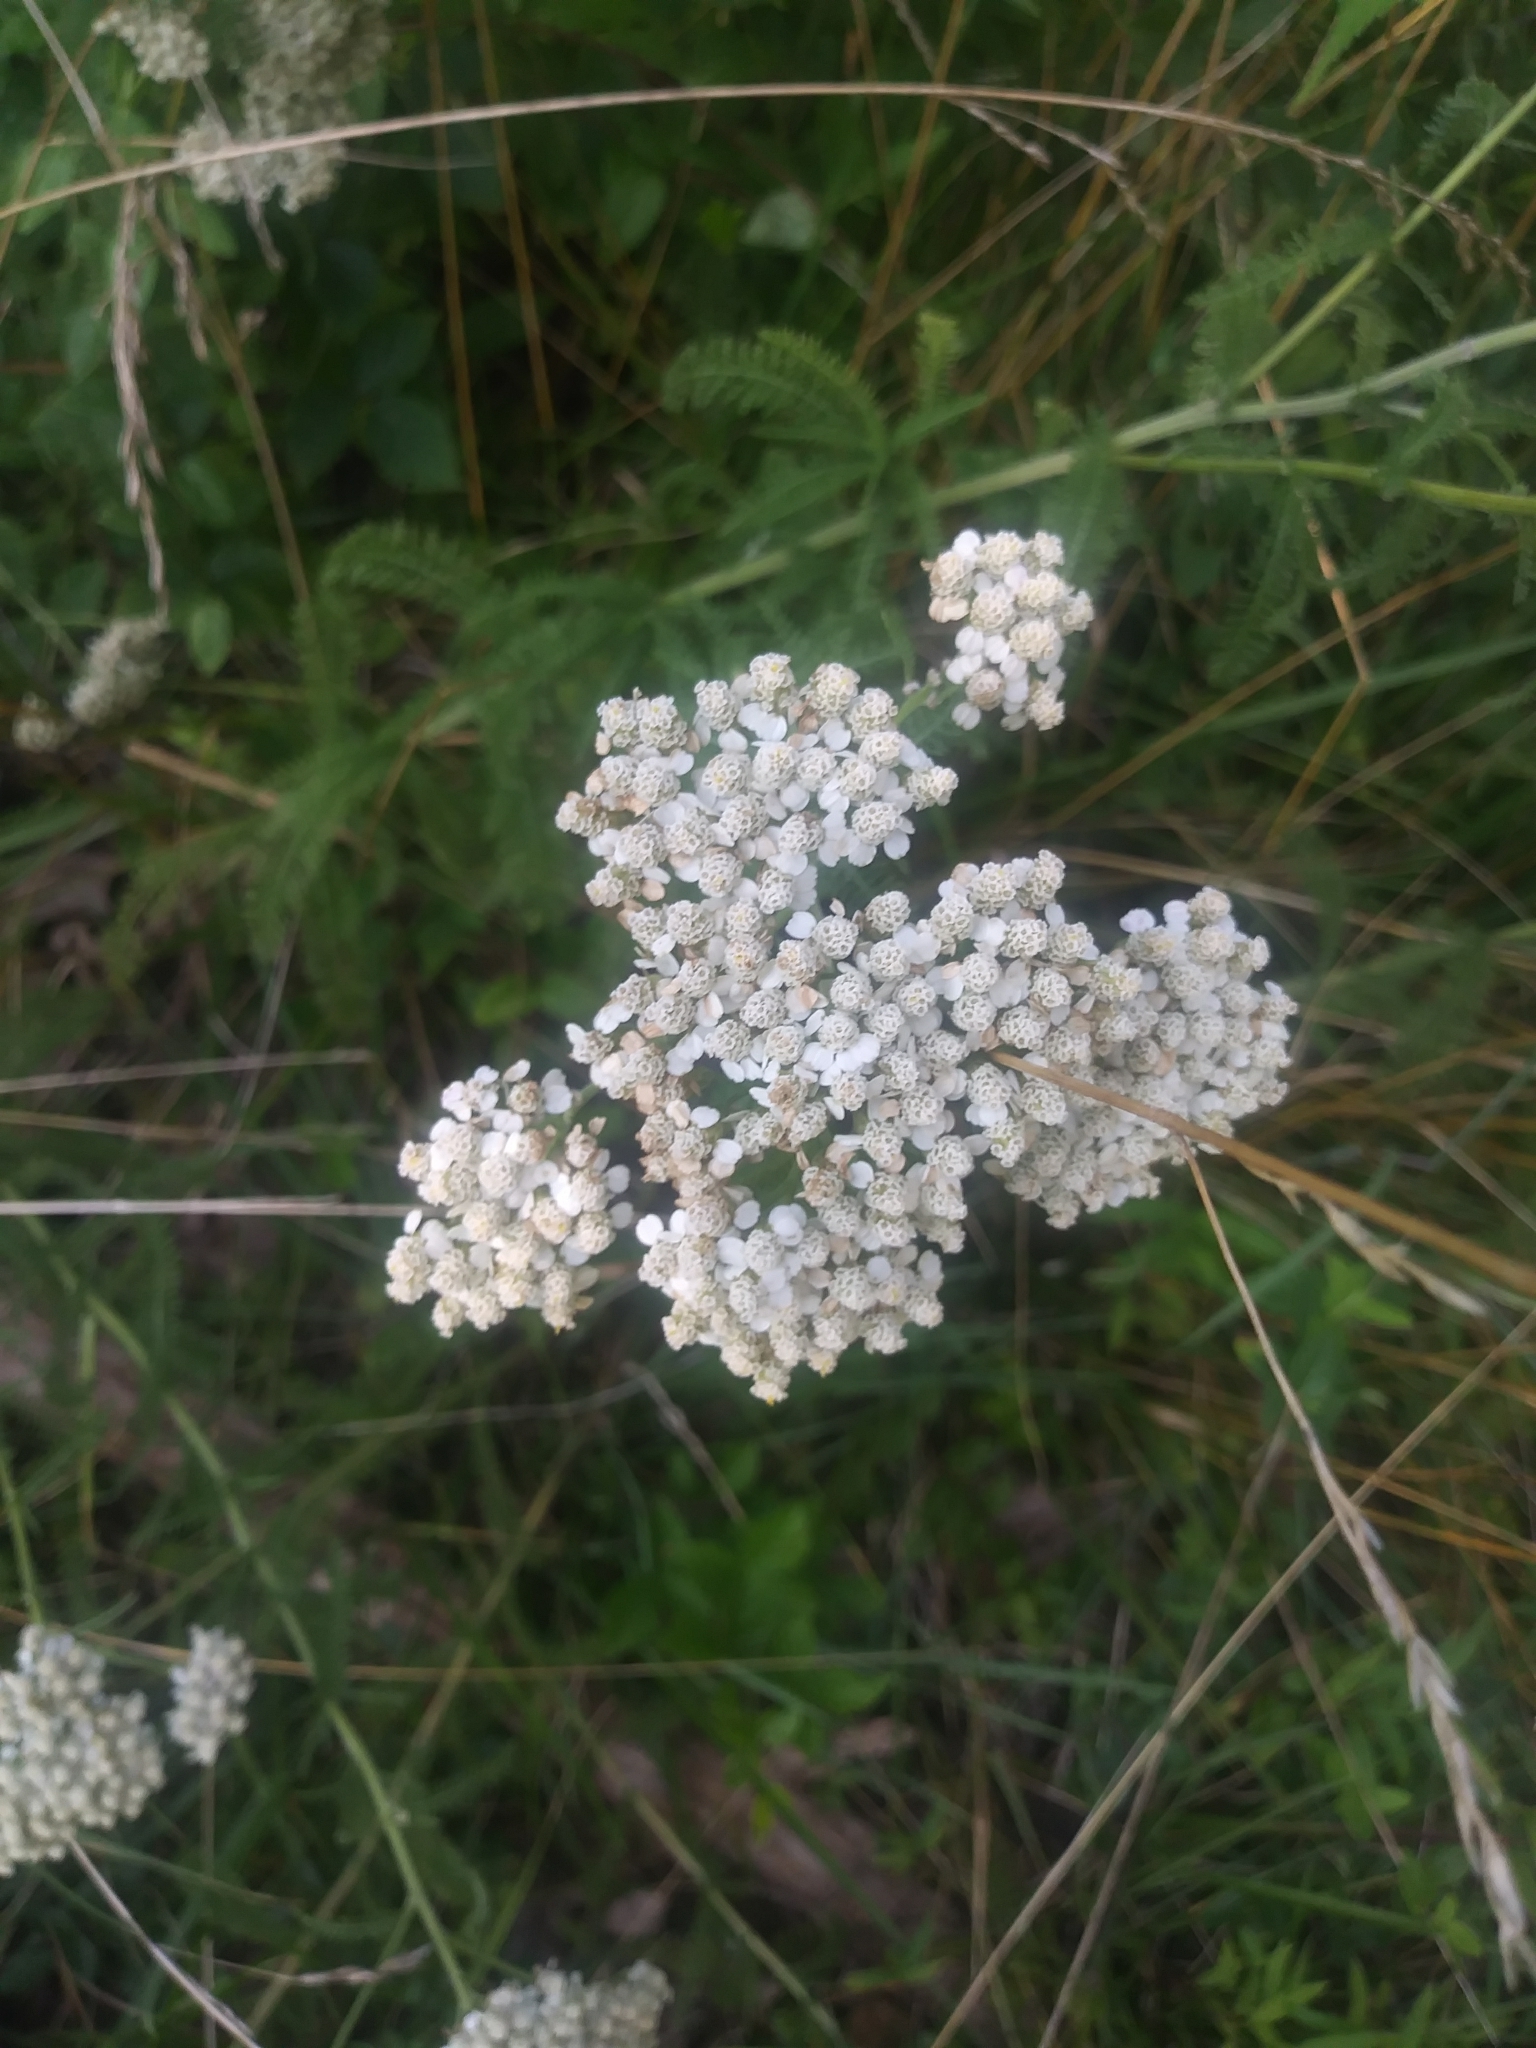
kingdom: Plantae
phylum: Tracheophyta
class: Magnoliopsida
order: Asterales
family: Asteraceae
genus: Achillea
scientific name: Achillea millefolium
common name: Yarrow
